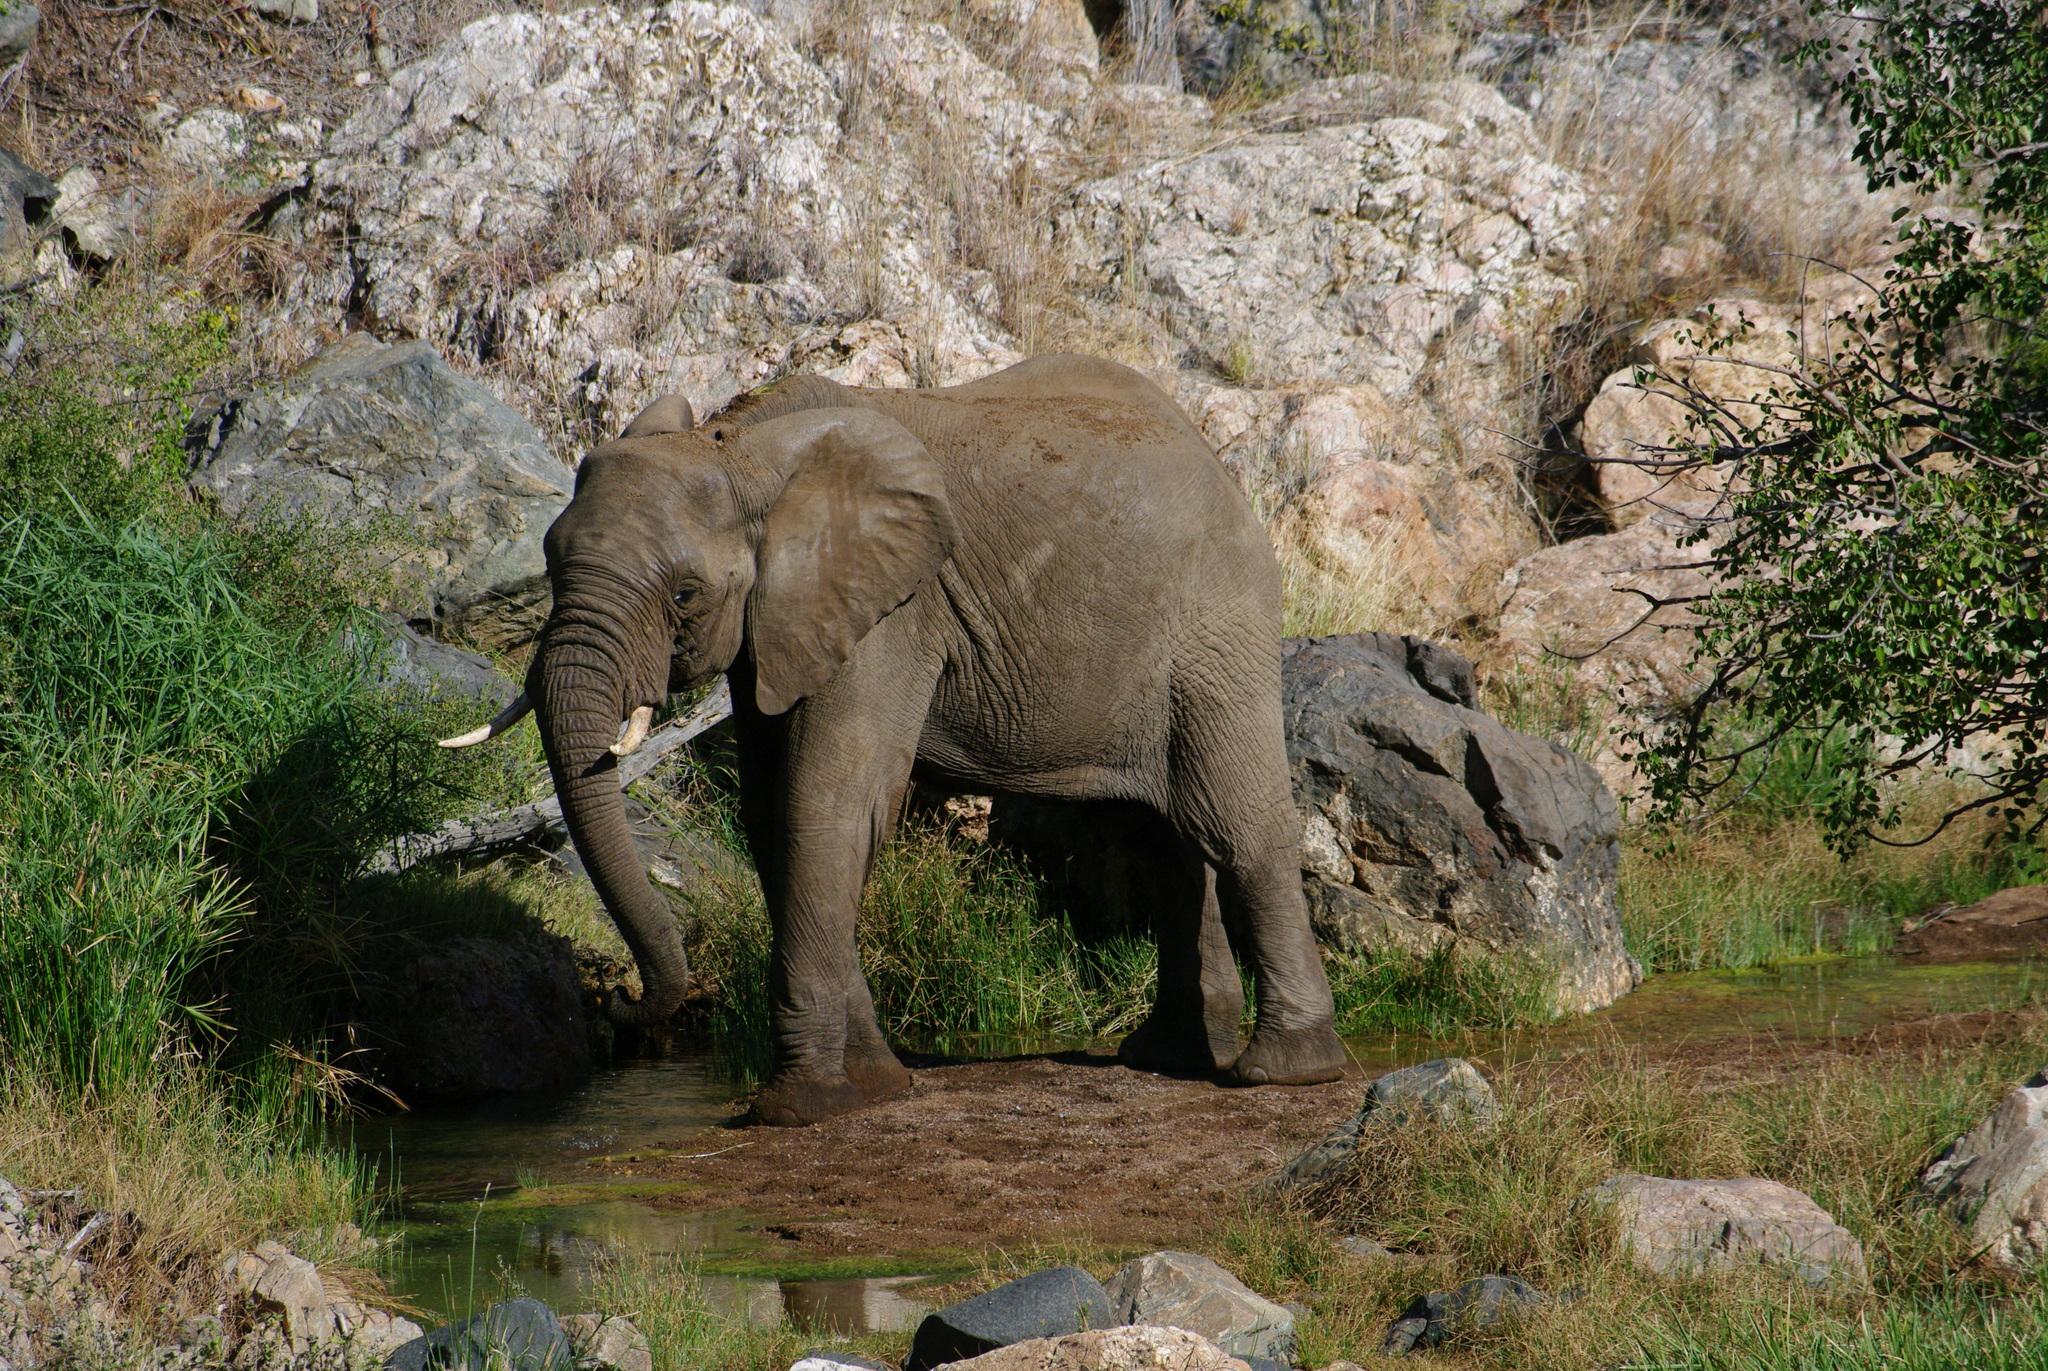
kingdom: Animalia
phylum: Chordata
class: Mammalia
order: Proboscidea
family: Elephantidae
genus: Loxodonta
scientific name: Loxodonta africana
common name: African elephant
